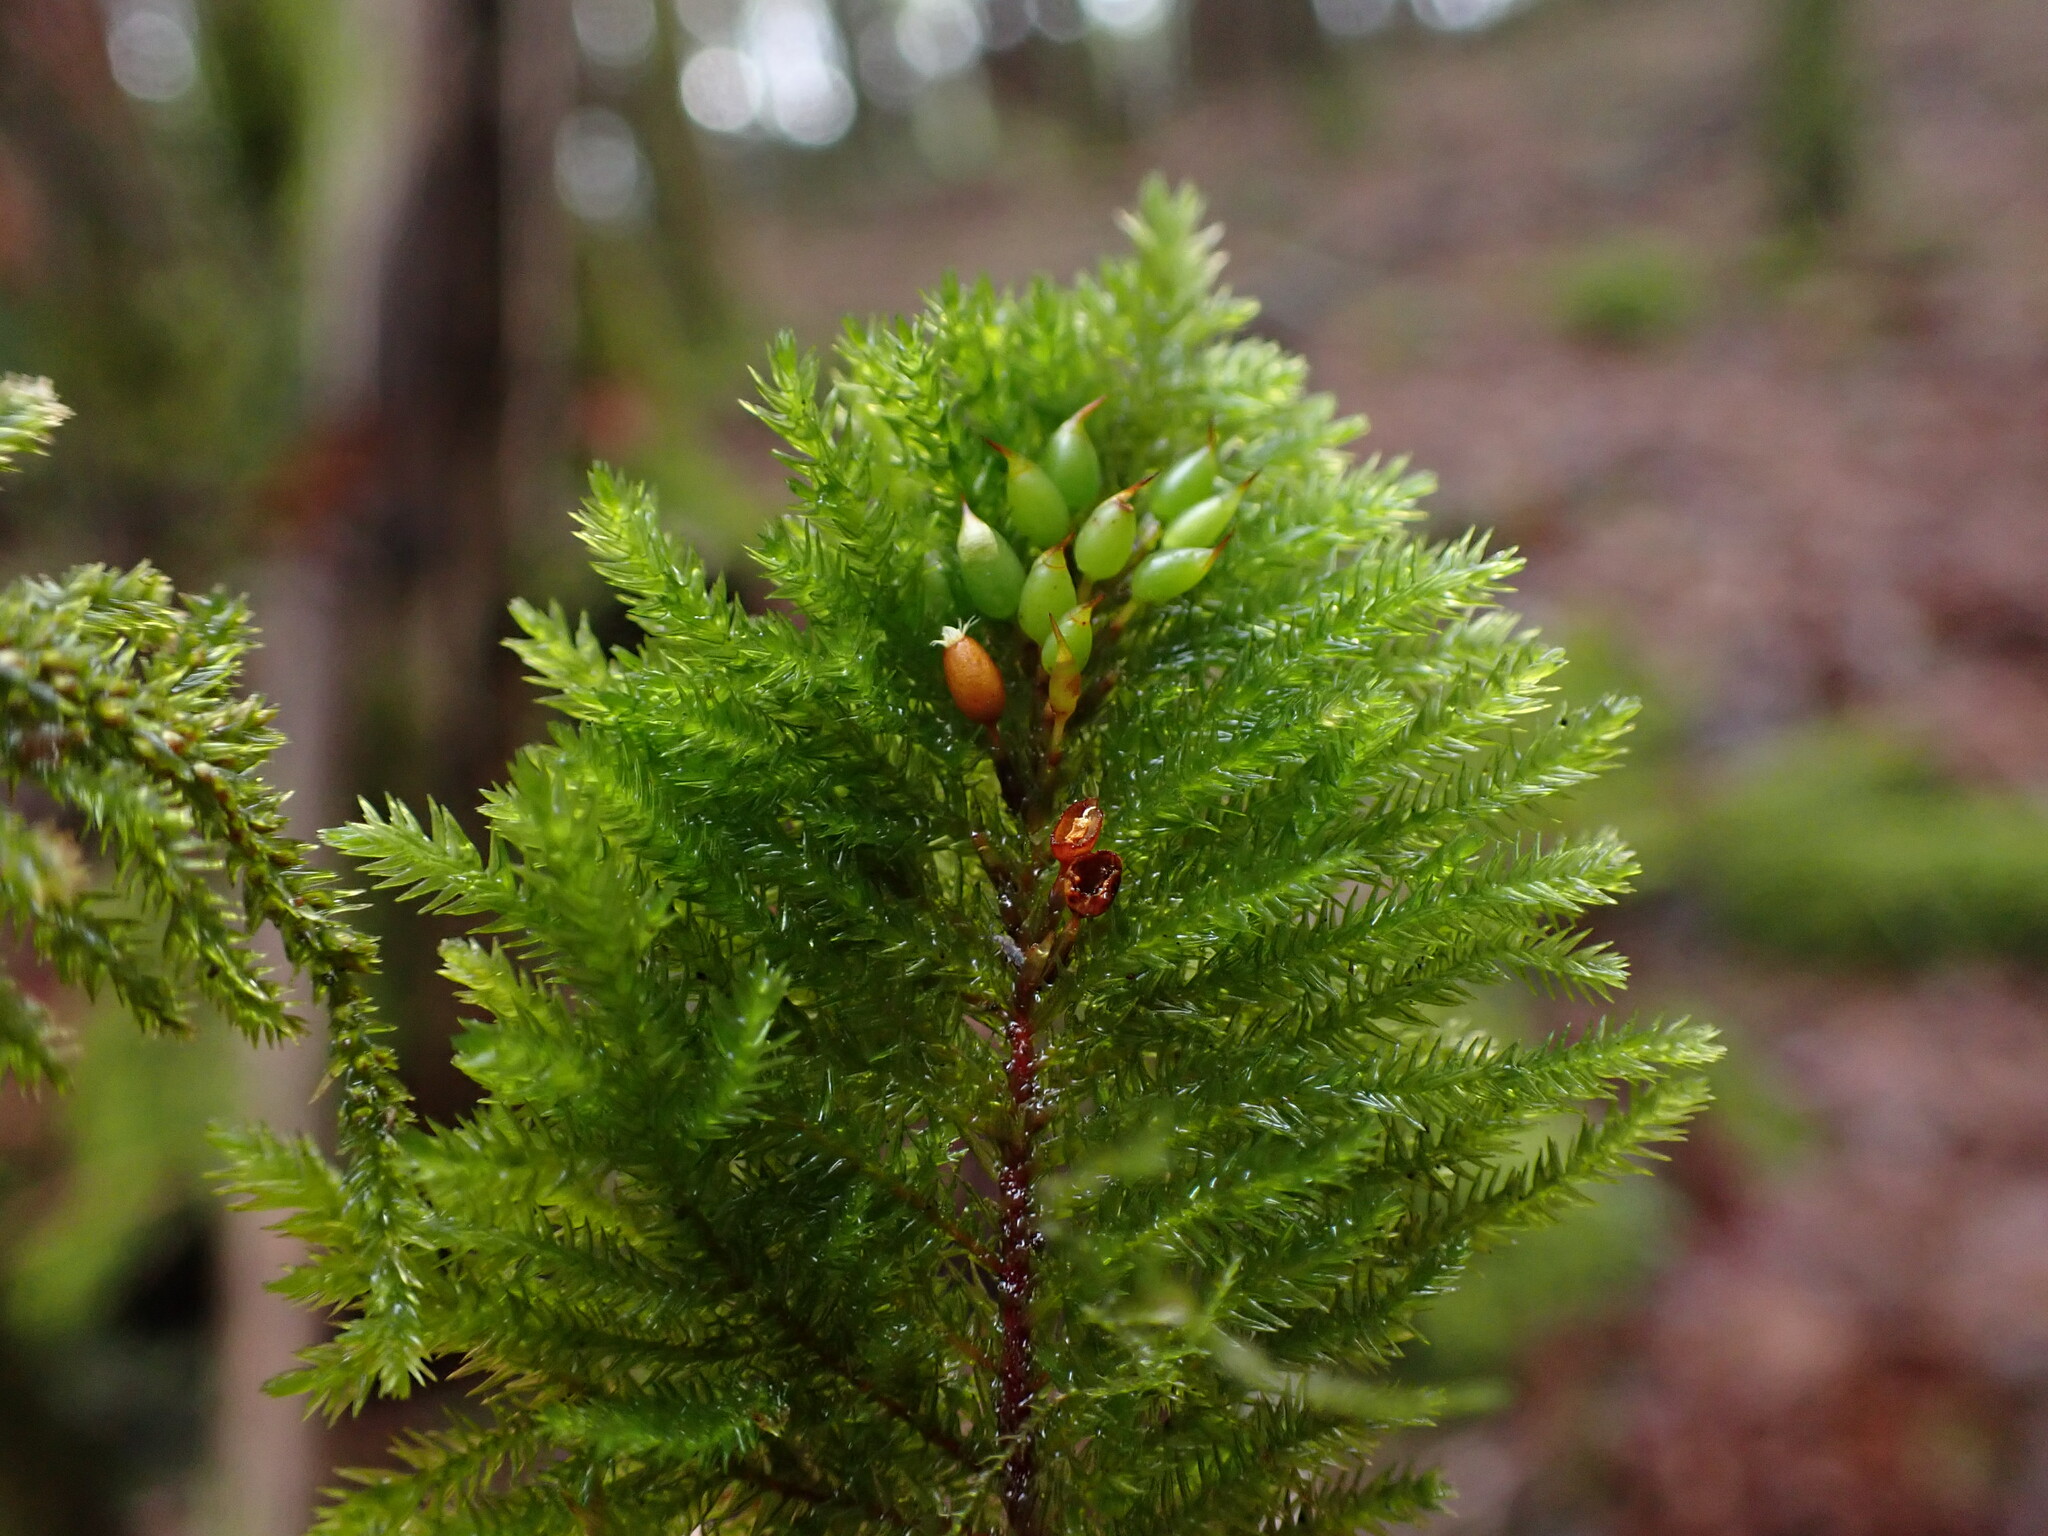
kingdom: Plantae
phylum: Bryophyta
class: Bryopsida
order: Hypnales
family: Cryphaeaceae
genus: Dendroalsia
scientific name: Dendroalsia abietina
